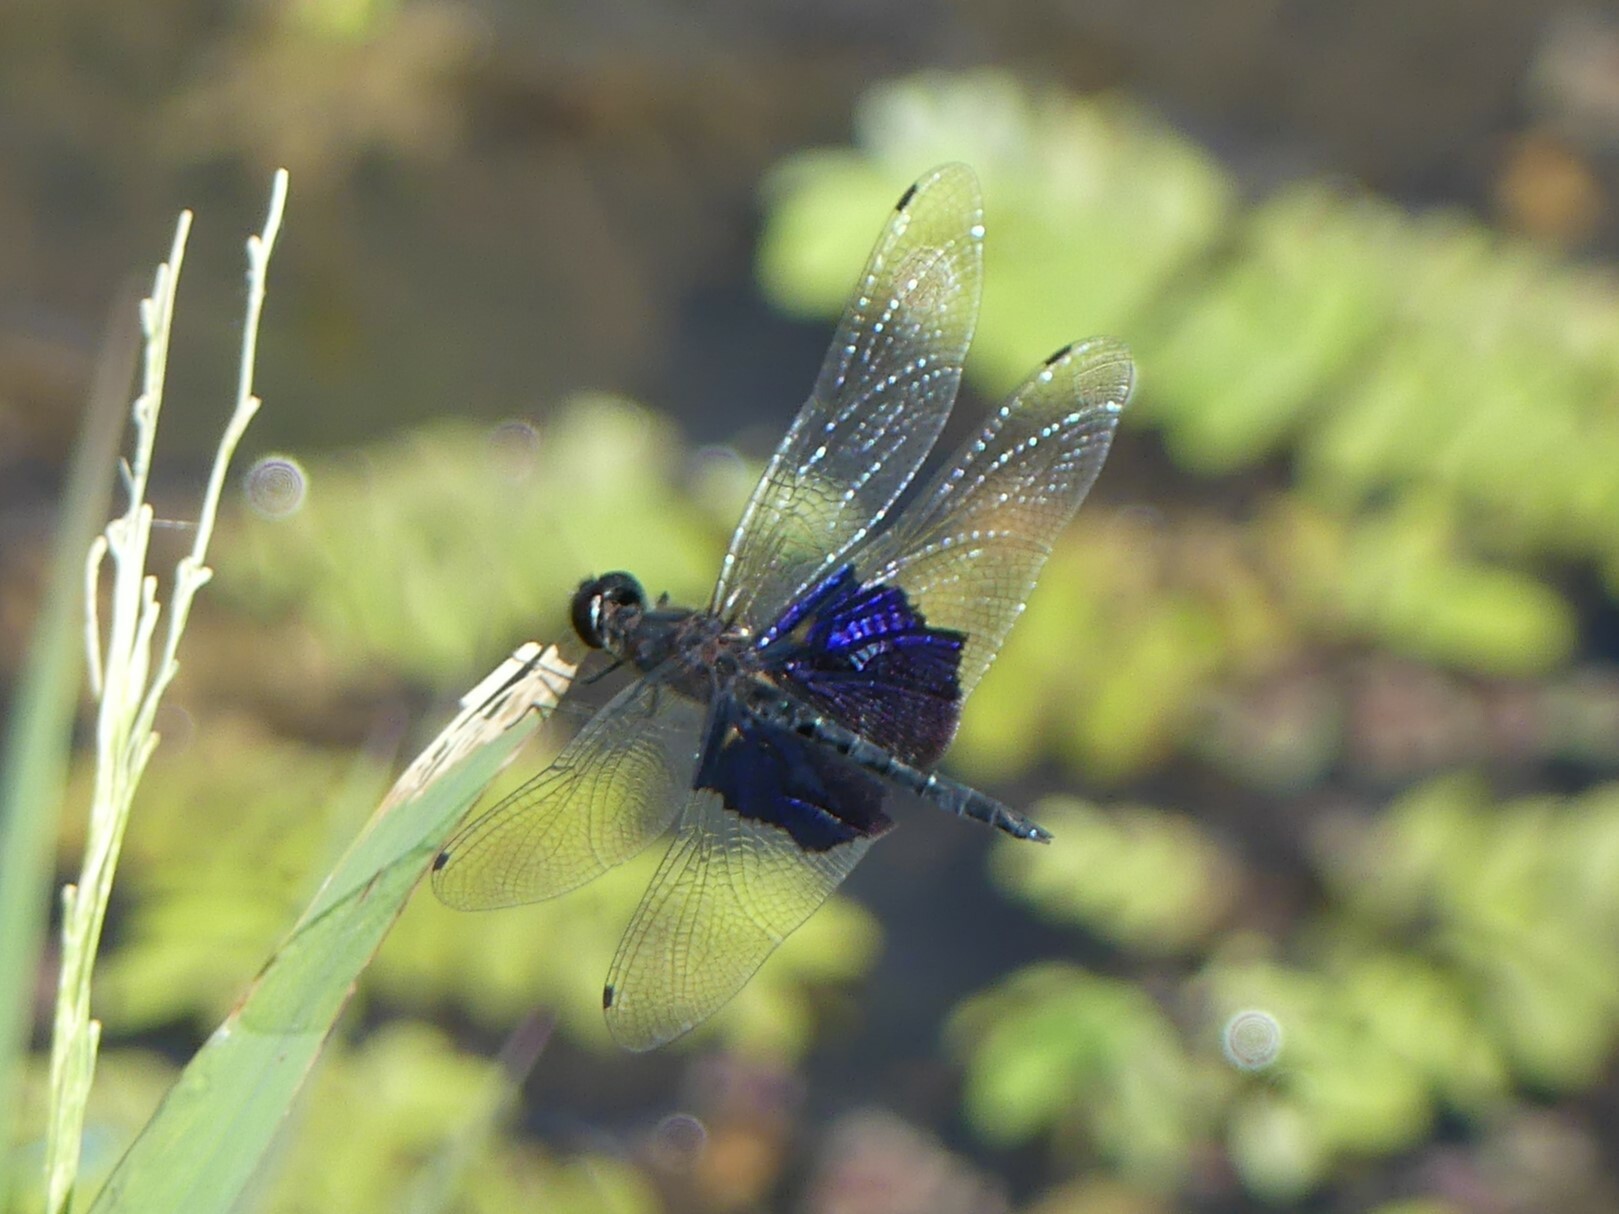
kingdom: Animalia
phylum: Arthropoda
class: Insecta
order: Odonata
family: Libellulidae
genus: Rhyothemis
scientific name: Rhyothemis semihyalina
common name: Phantom flutterer
